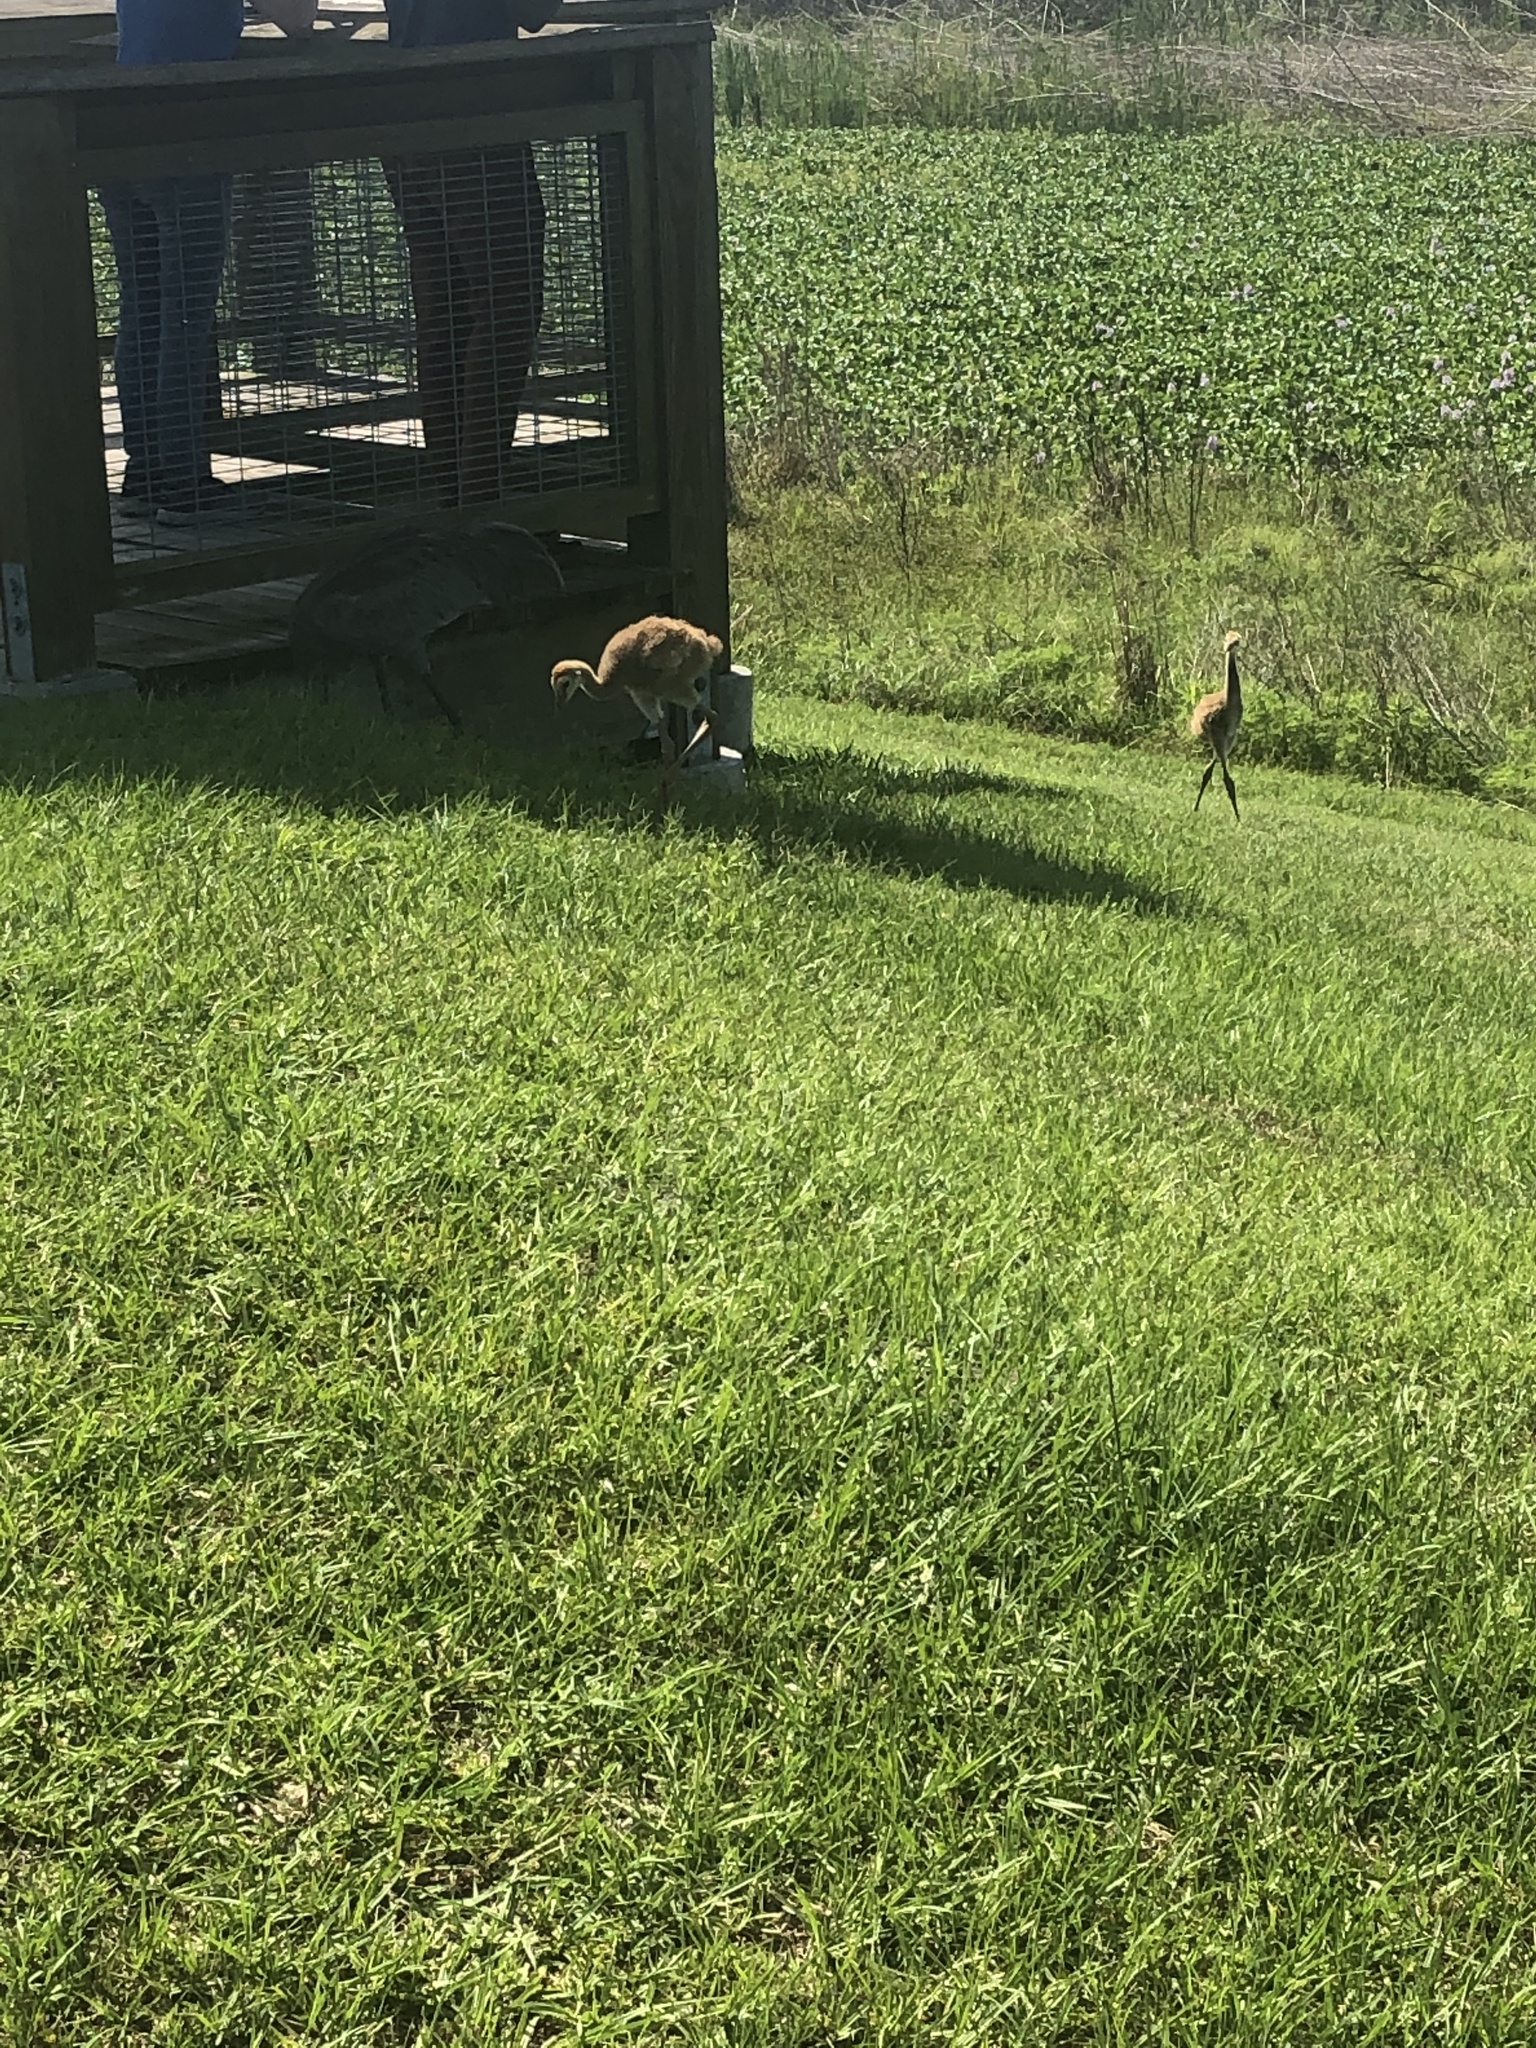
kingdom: Animalia
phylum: Chordata
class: Aves
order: Gruiformes
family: Gruidae
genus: Grus
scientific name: Grus canadensis
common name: Sandhill crane
